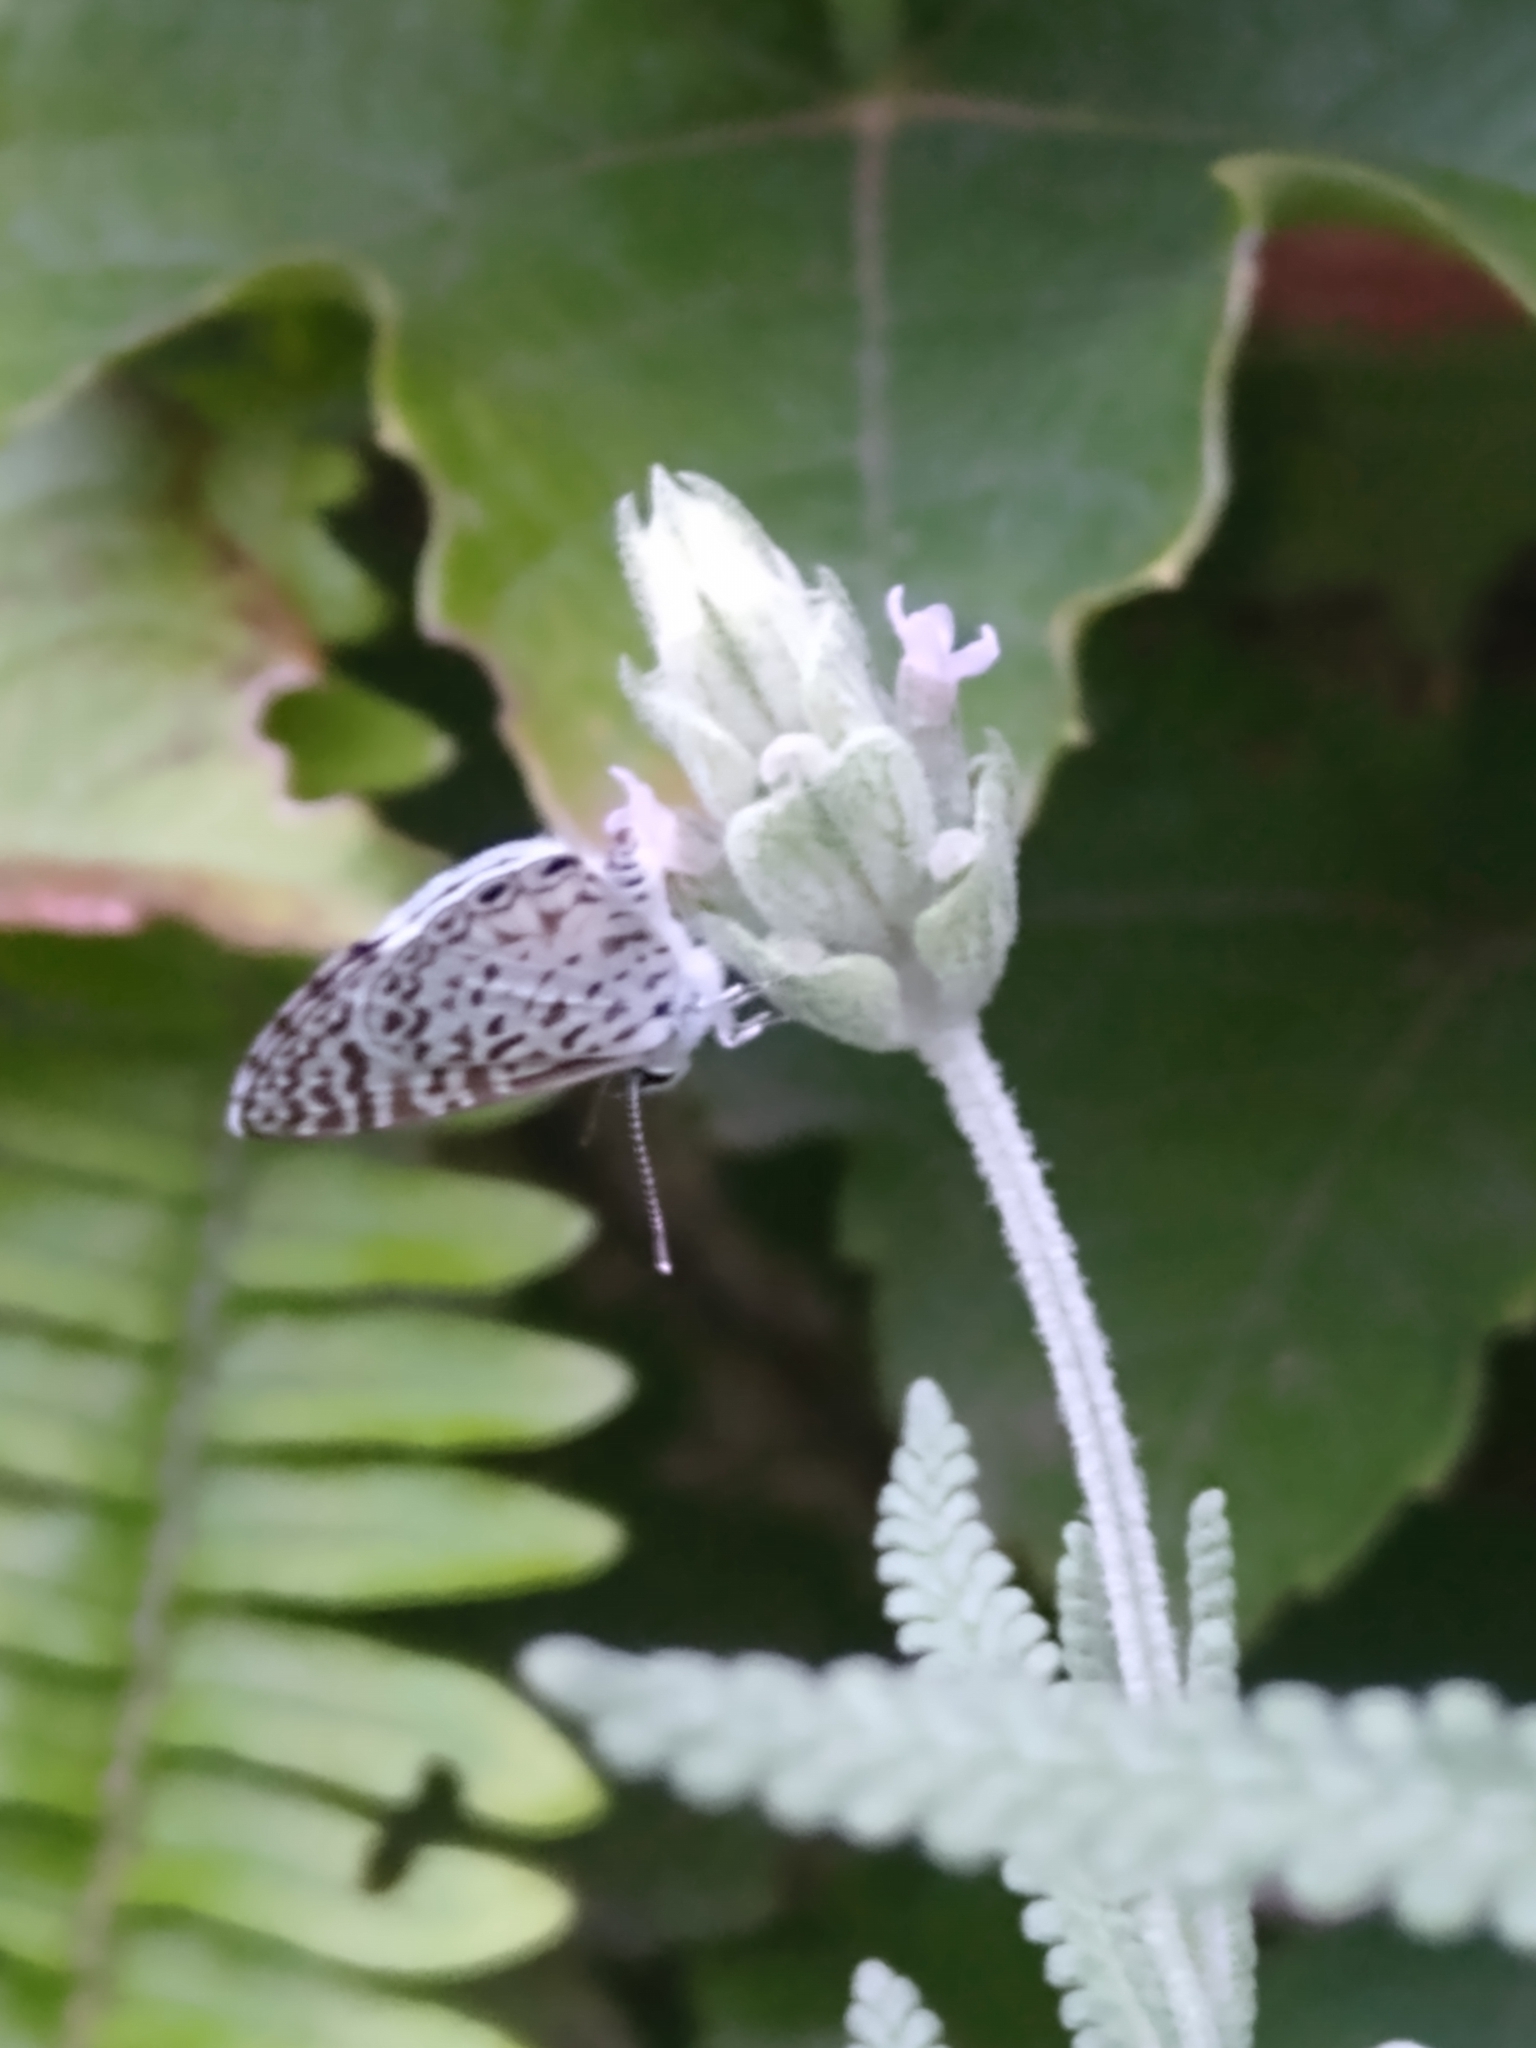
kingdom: Animalia
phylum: Arthropoda
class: Insecta
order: Lepidoptera
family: Lycaenidae
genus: Leptotes
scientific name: Leptotes cassius
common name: Cassius blue
